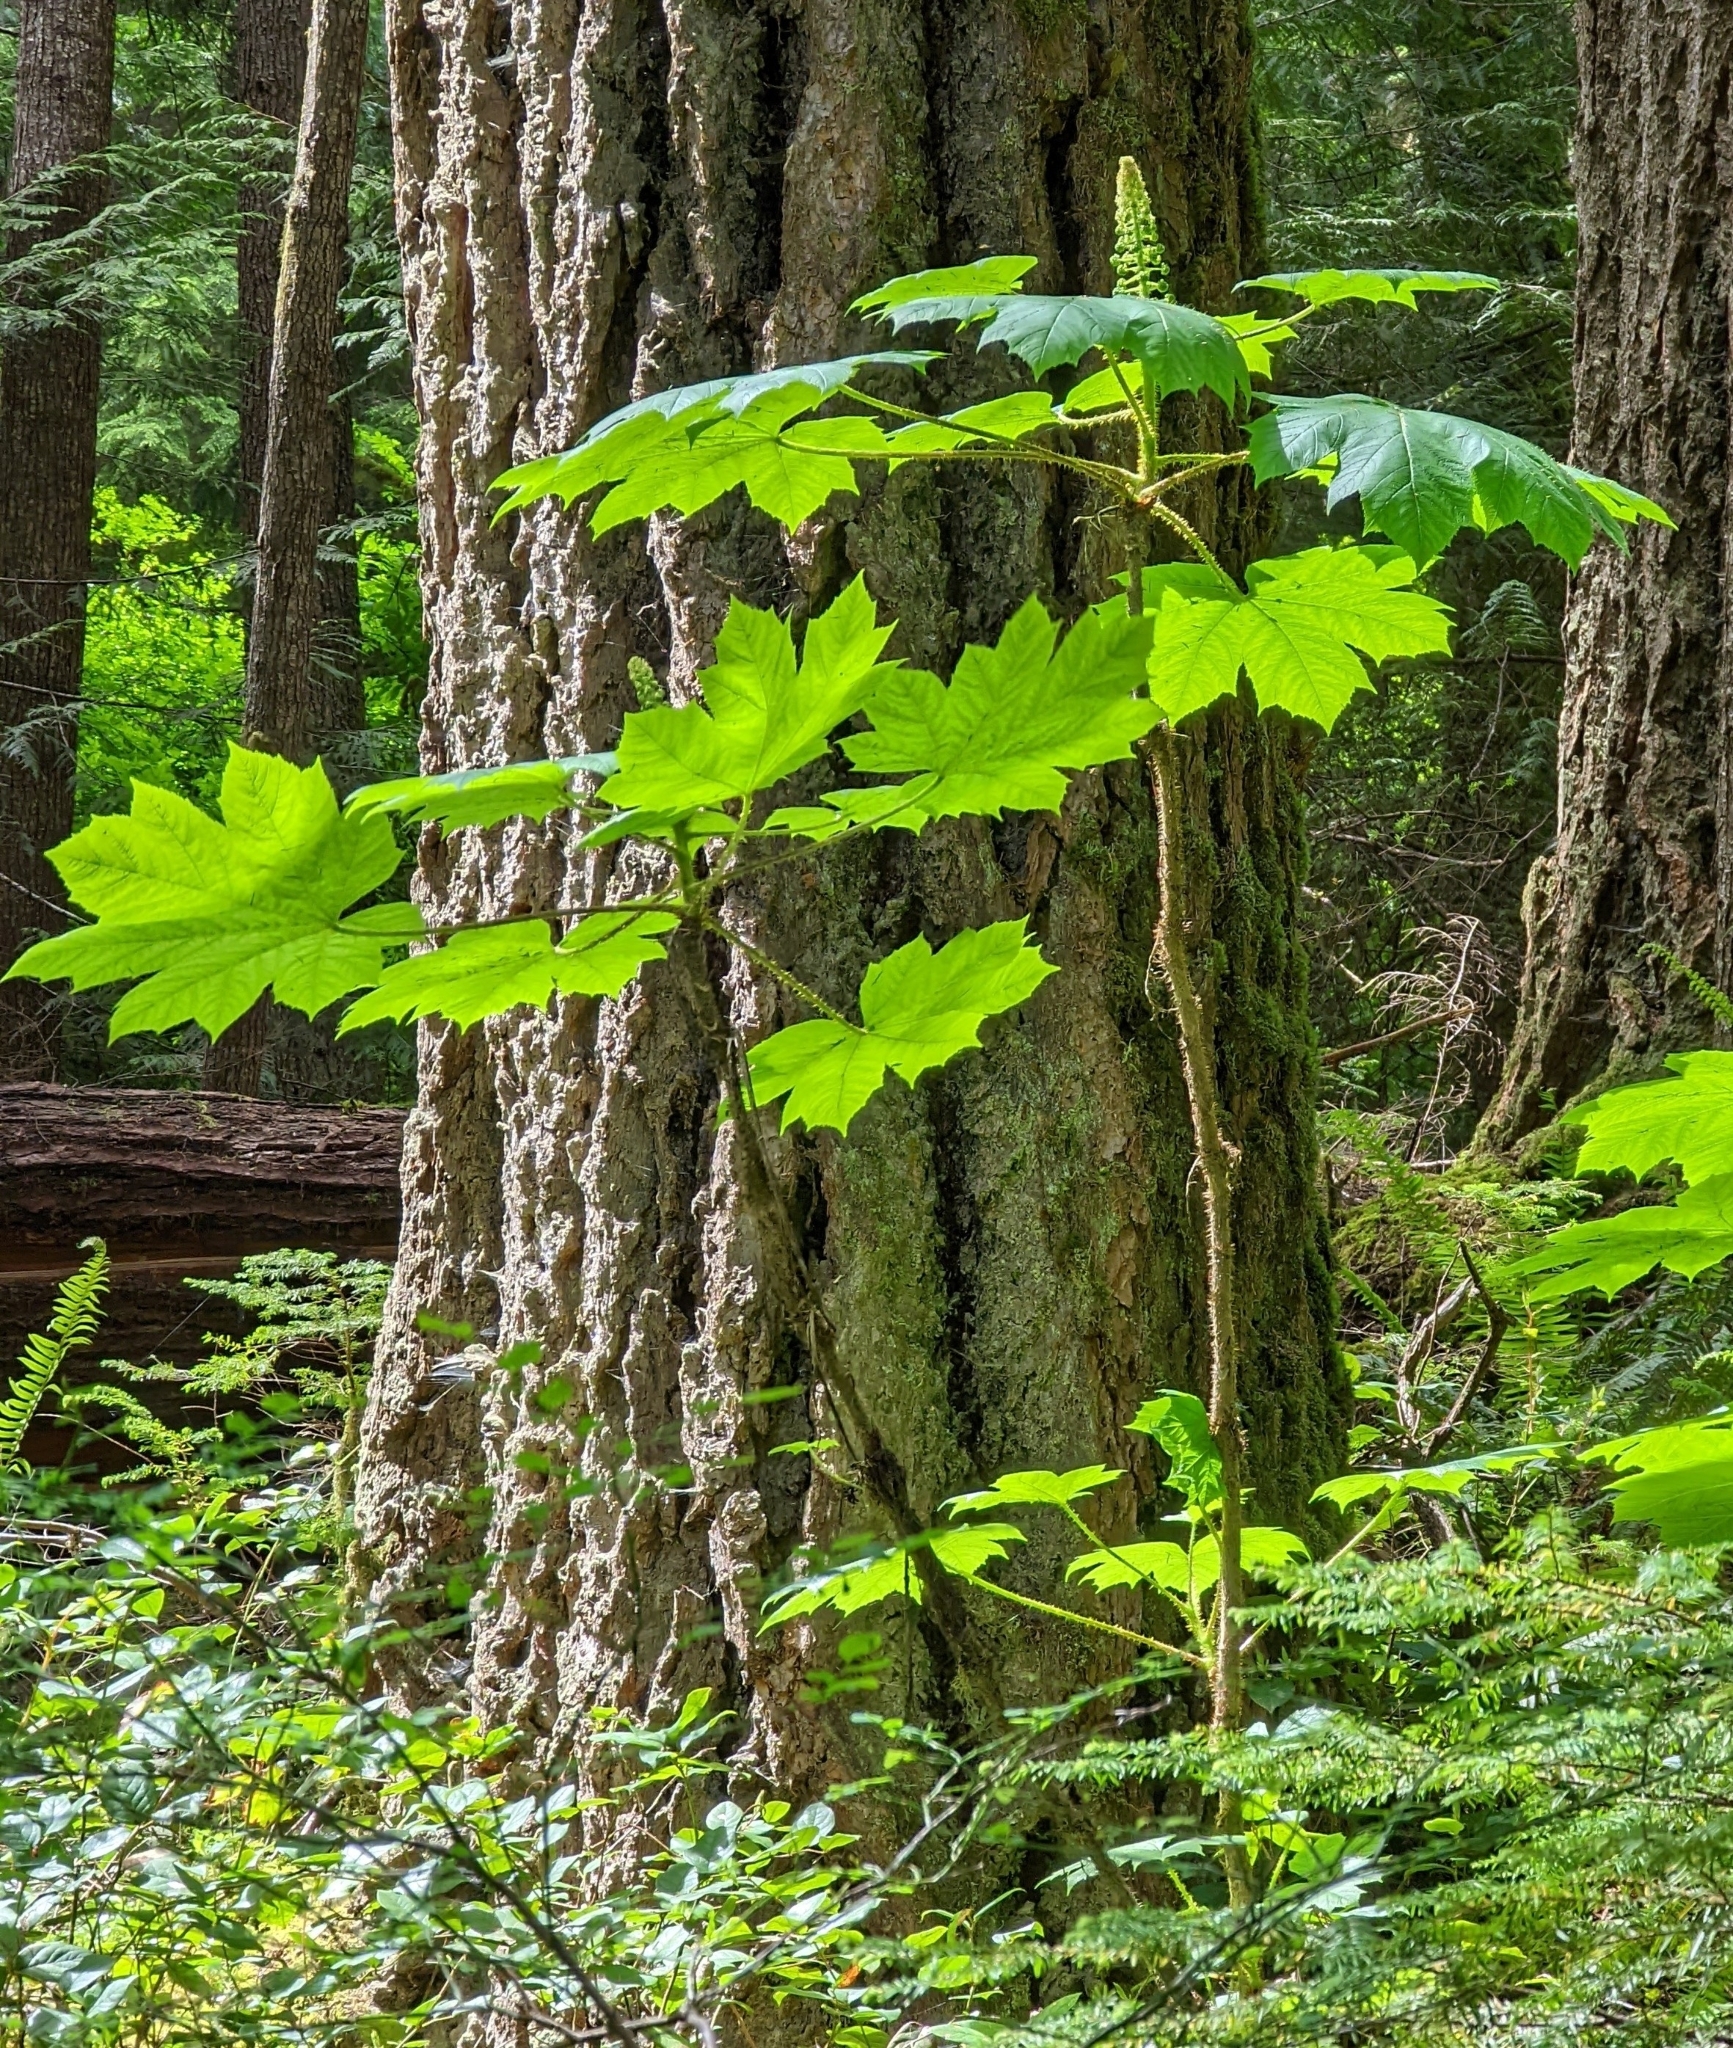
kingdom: Plantae
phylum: Tracheophyta
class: Magnoliopsida
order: Apiales
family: Araliaceae
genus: Oplopanax
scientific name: Oplopanax horridus
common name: Devil's walking-stick
